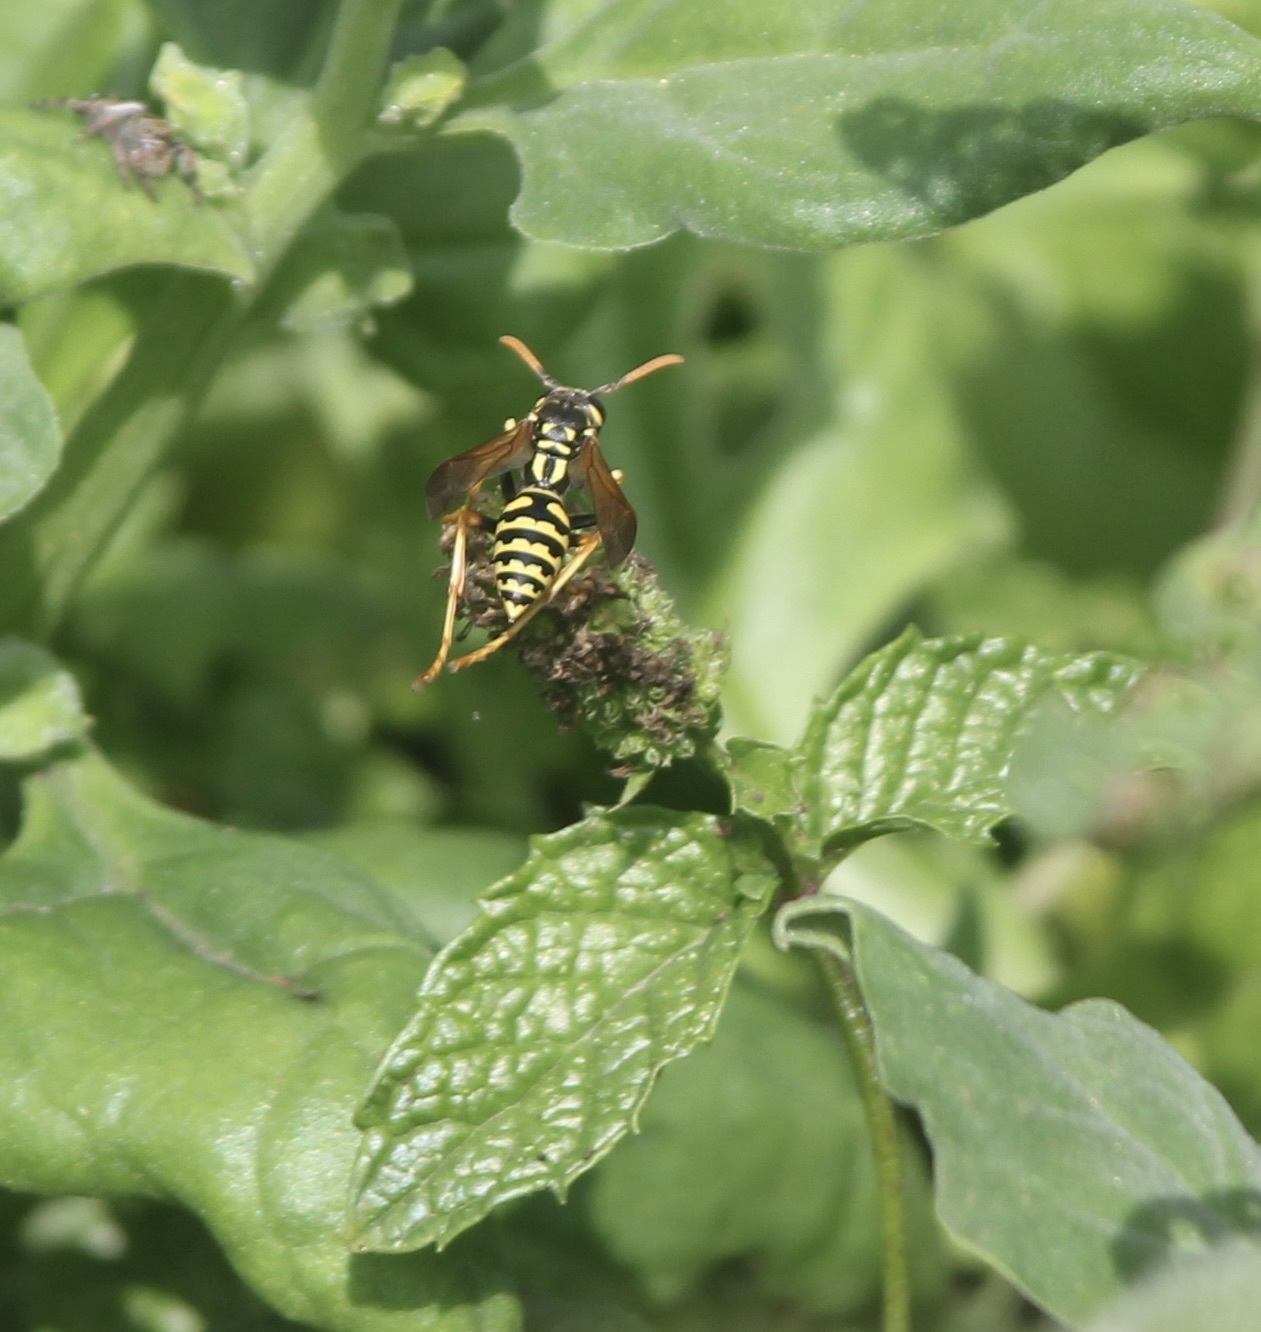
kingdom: Animalia
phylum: Arthropoda
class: Insecta
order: Hymenoptera
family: Eumenidae
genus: Polistes
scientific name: Polistes dominula
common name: Paper wasp
